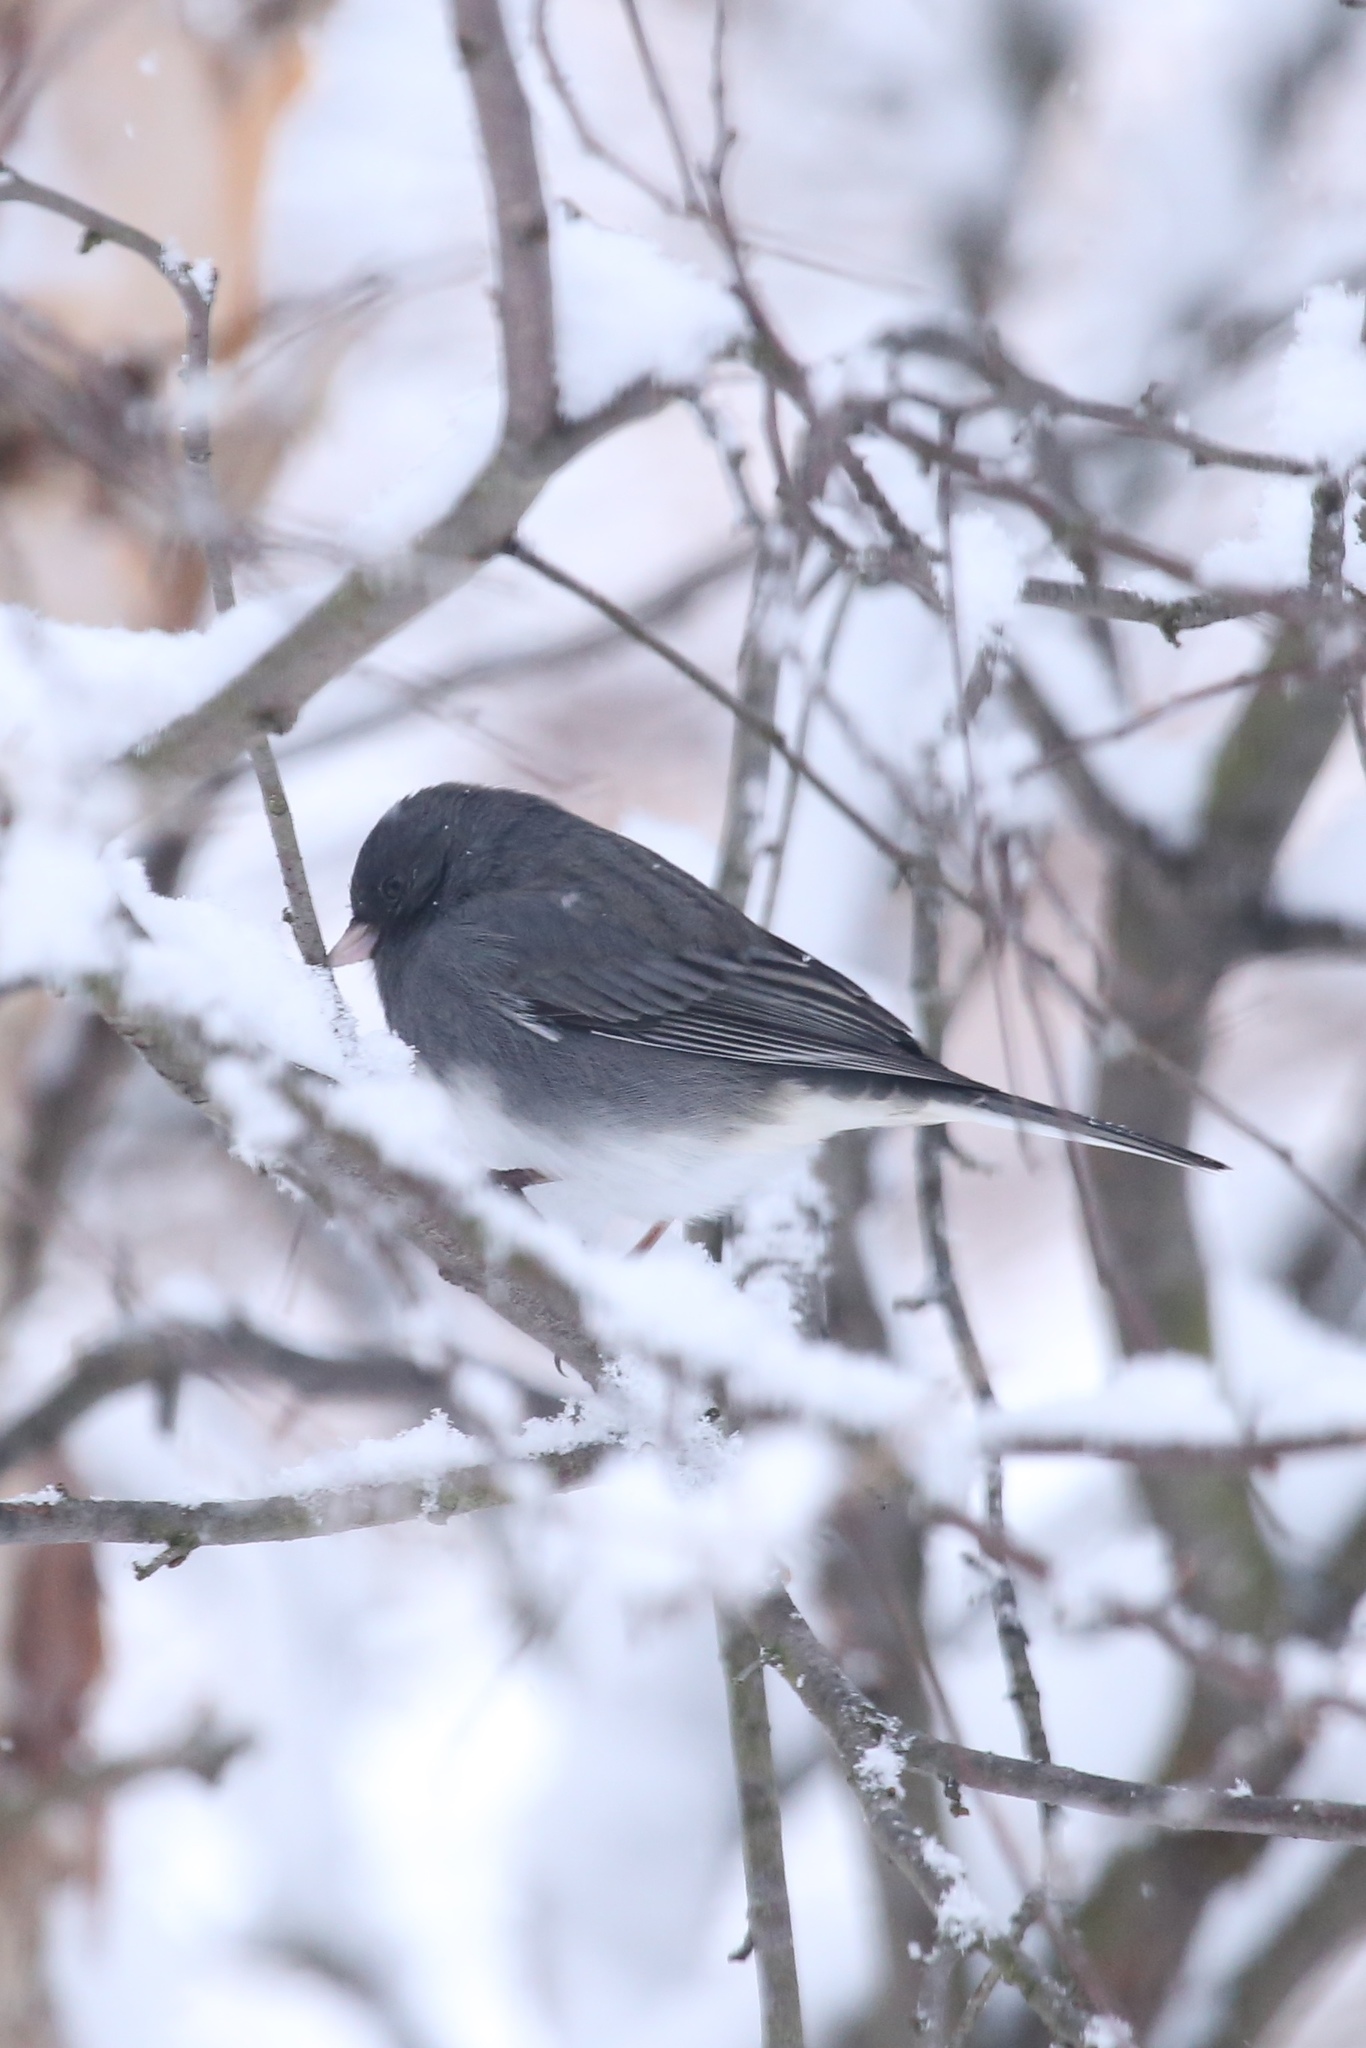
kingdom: Animalia
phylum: Chordata
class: Aves
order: Passeriformes
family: Passerellidae
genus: Junco
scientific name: Junco hyemalis
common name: Dark-eyed junco
